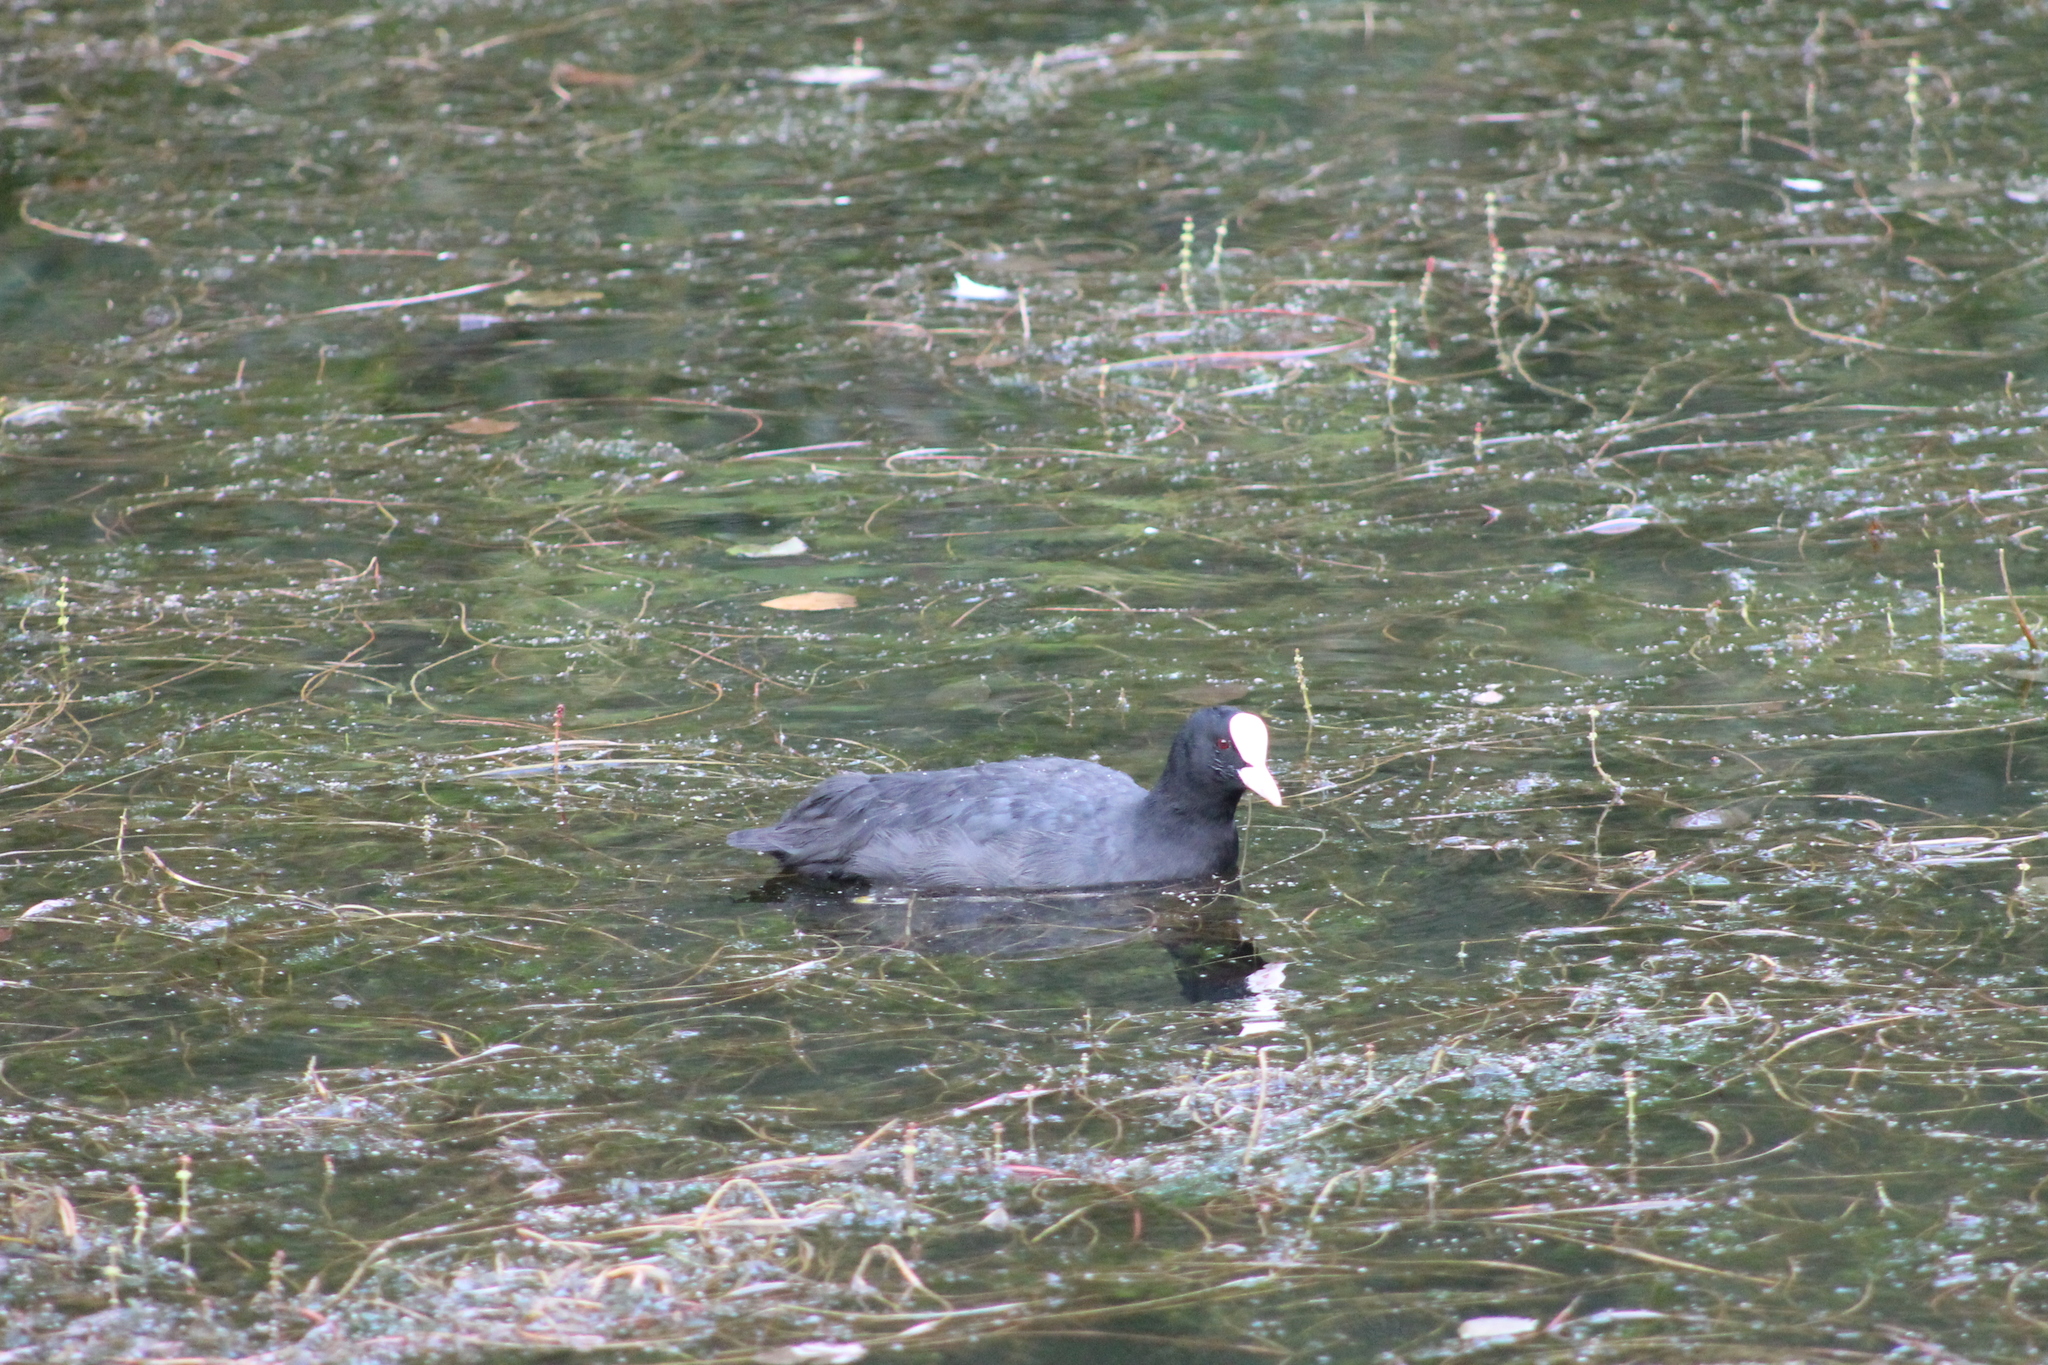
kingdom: Animalia
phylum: Chordata
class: Aves
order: Gruiformes
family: Rallidae
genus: Fulica
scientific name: Fulica atra
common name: Eurasian coot
